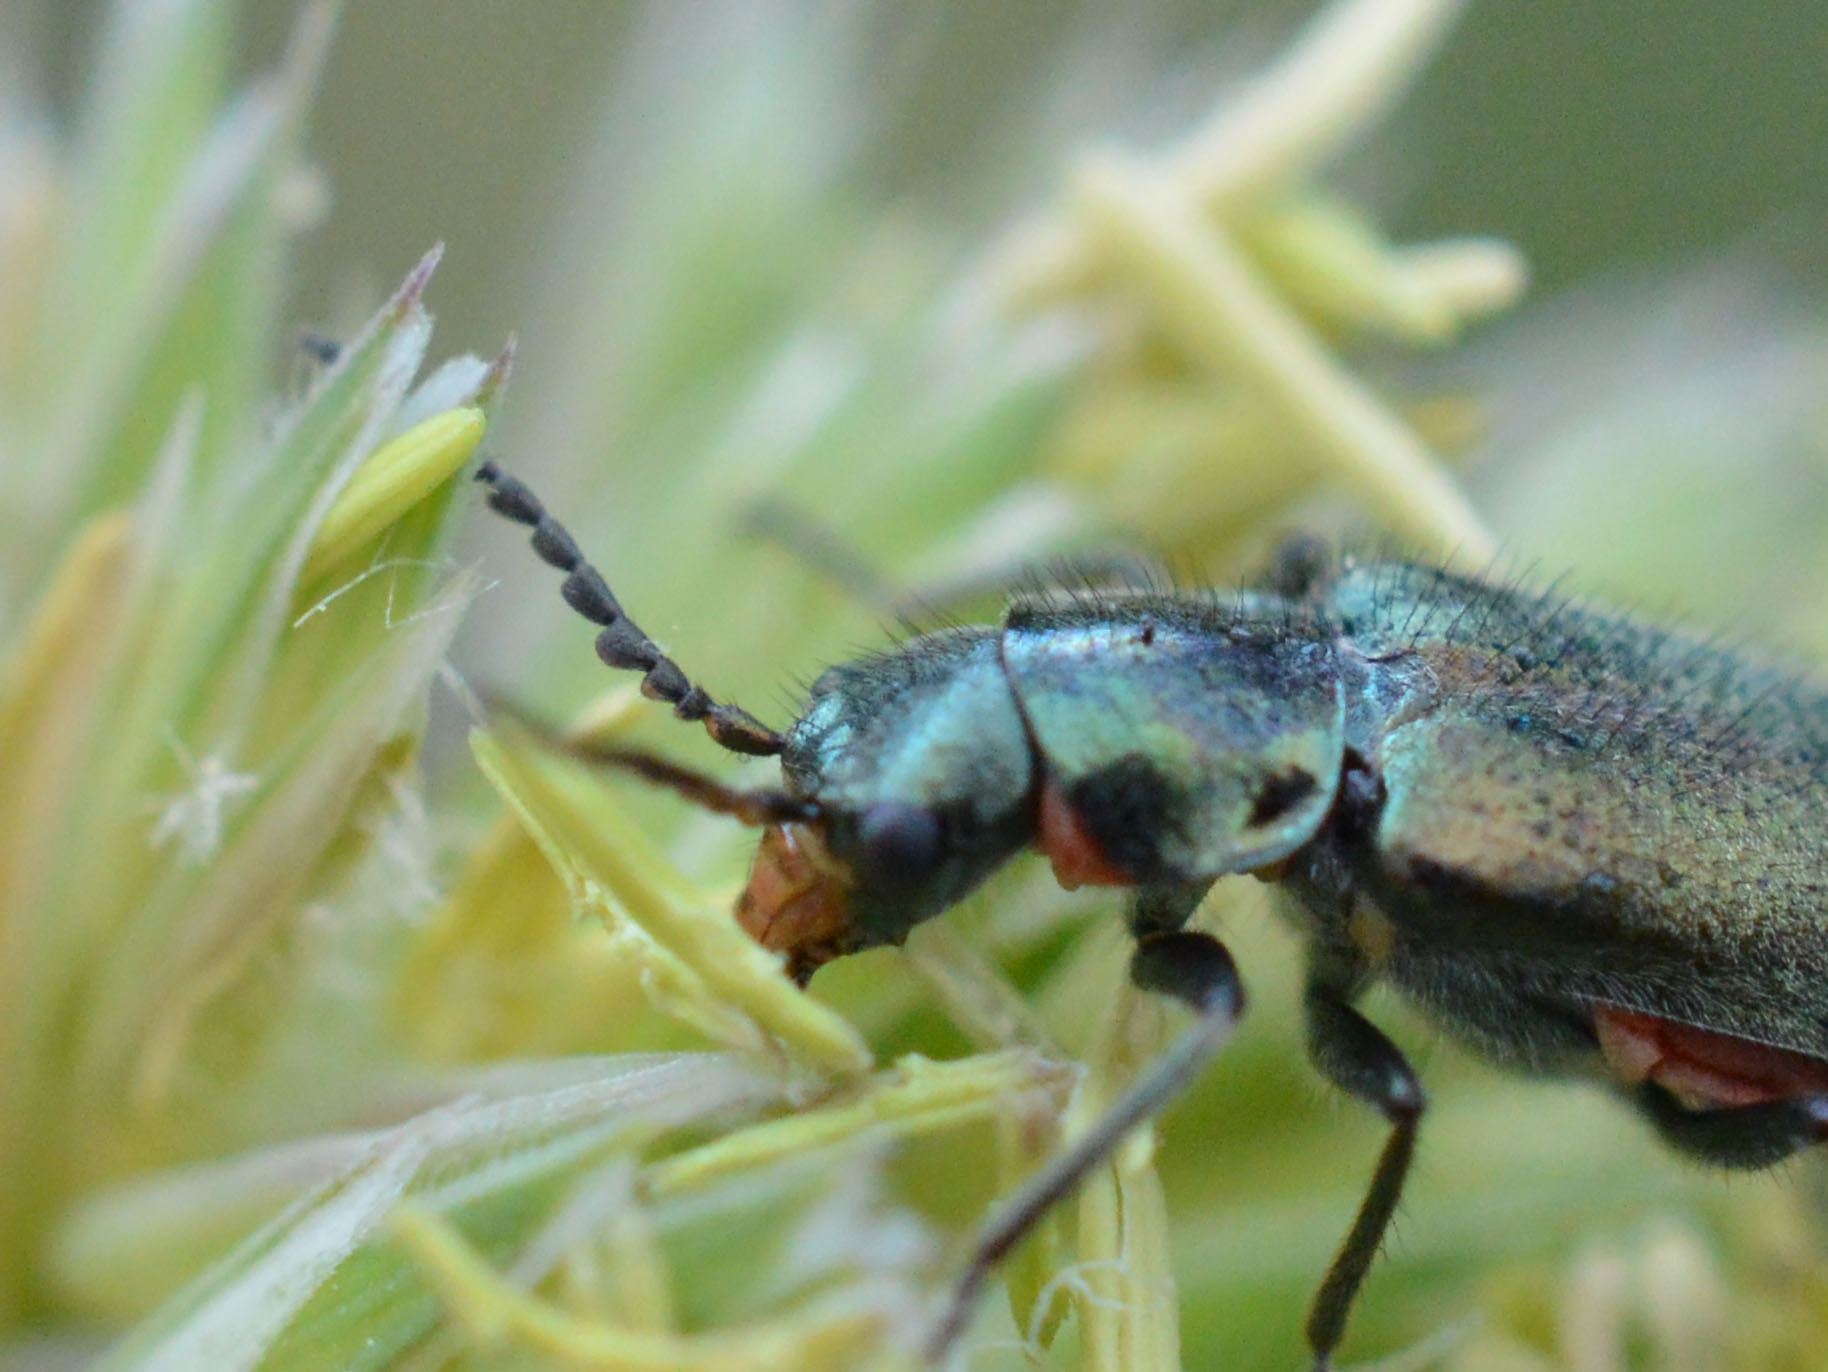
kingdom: Animalia
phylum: Arthropoda
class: Insecta
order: Coleoptera
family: Melyridae
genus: Malachius
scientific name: Malachius bipustulatus
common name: Malachite beetle
